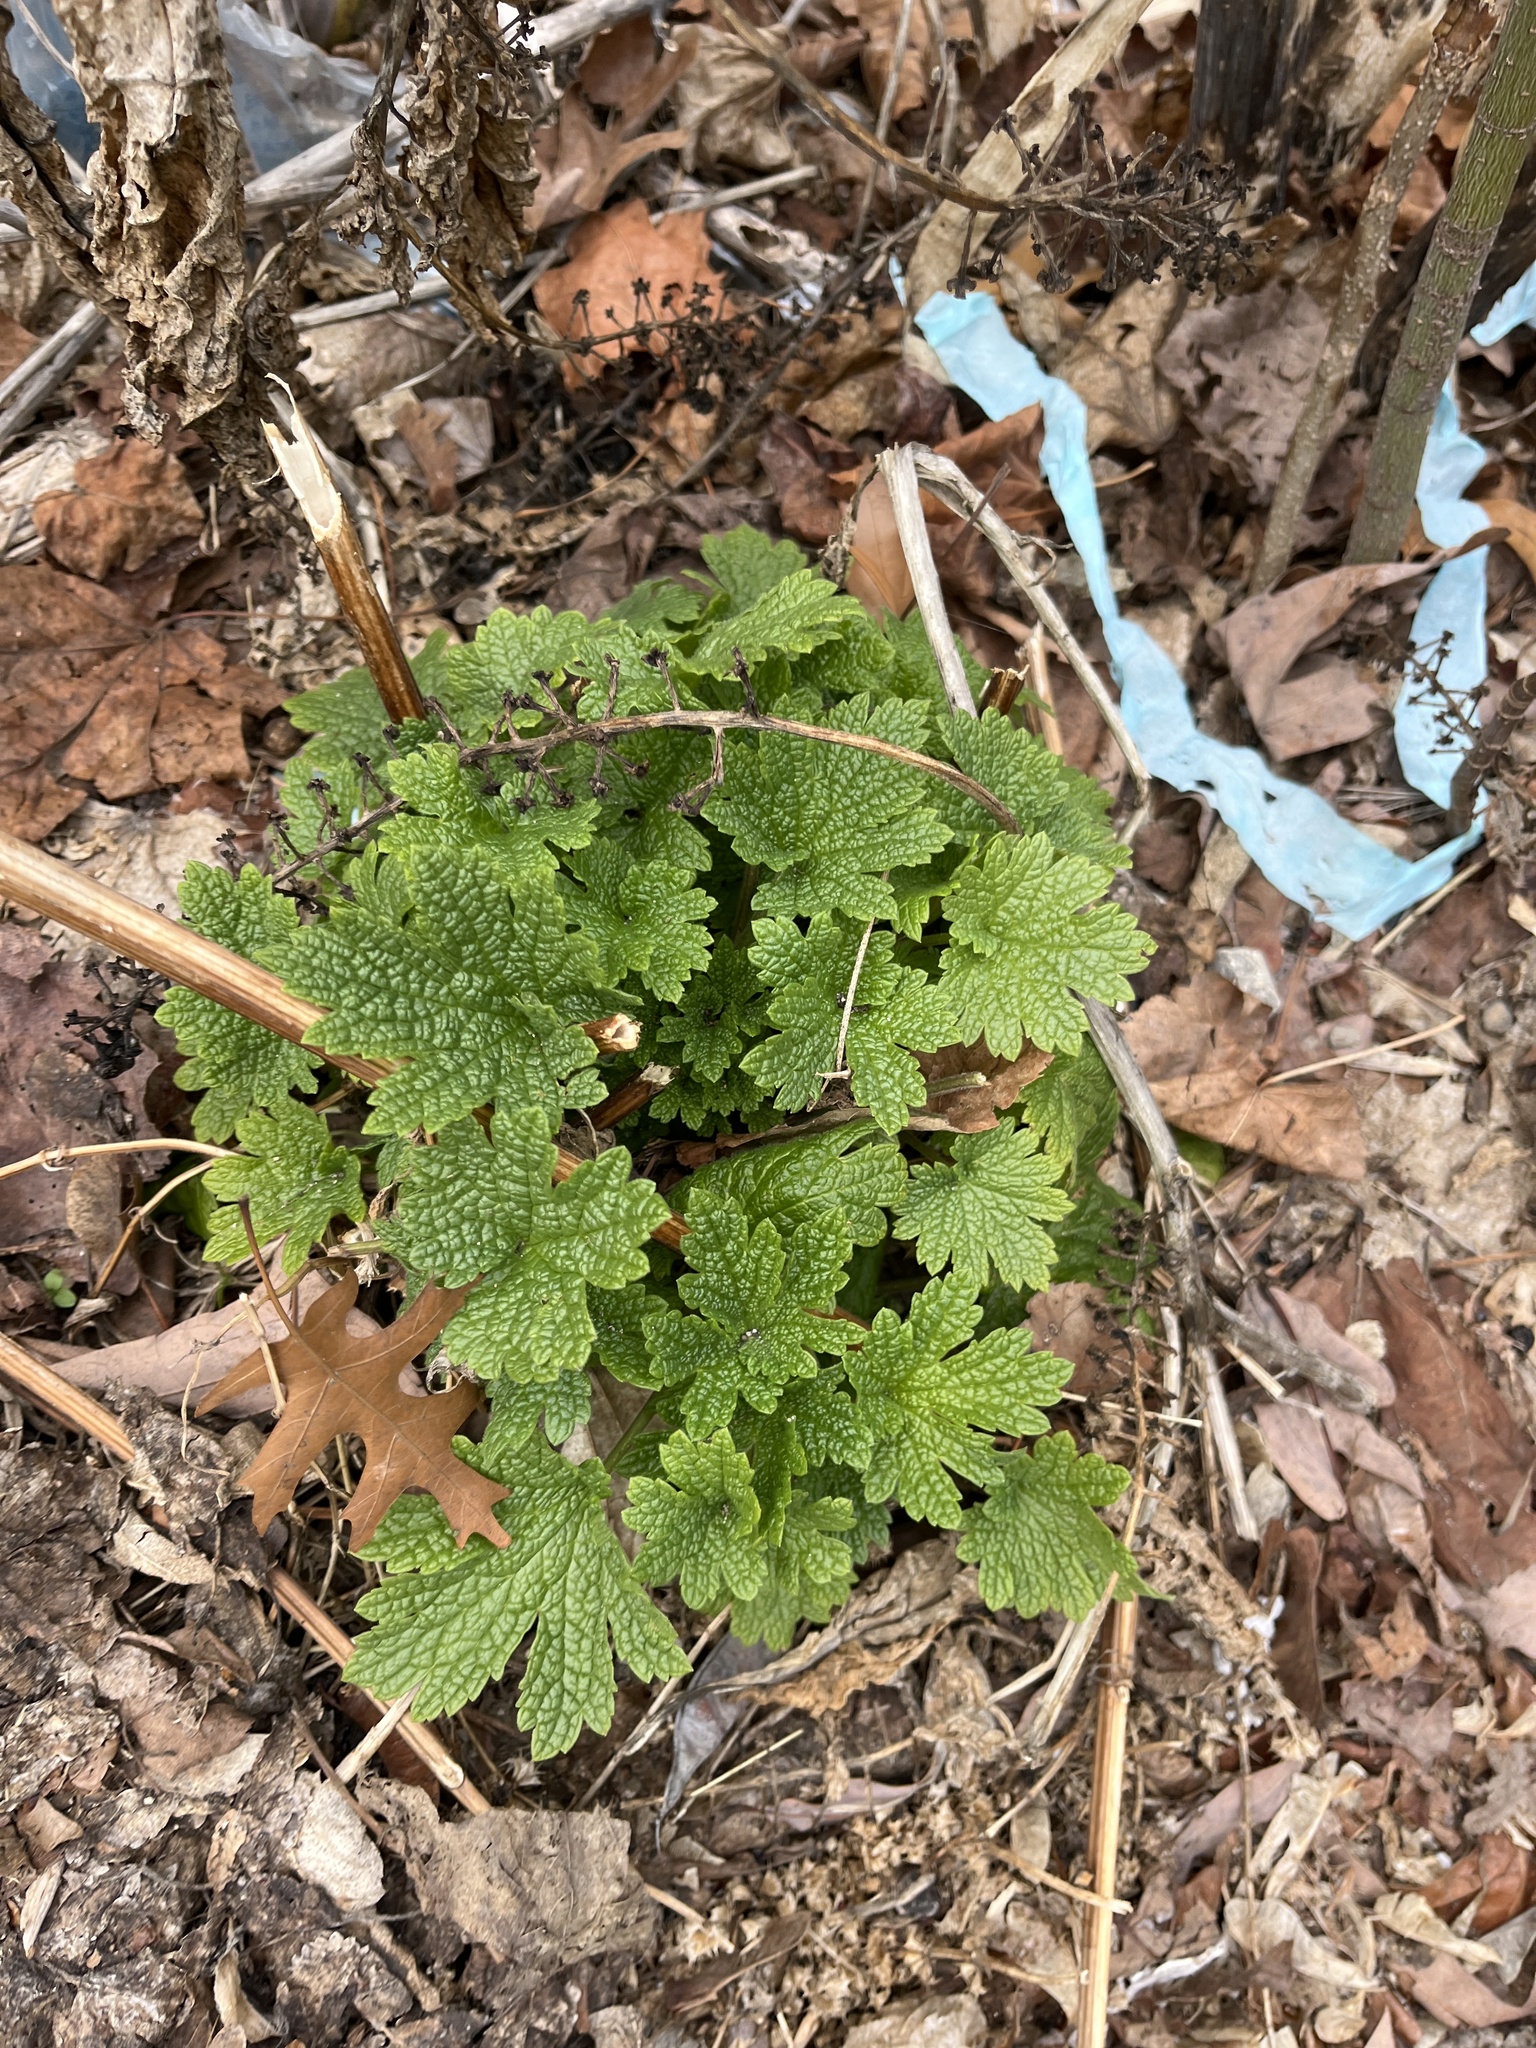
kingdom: Plantae
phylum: Tracheophyta
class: Magnoliopsida
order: Lamiales
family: Lamiaceae
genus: Leonurus
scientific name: Leonurus cardiaca
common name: Motherwort
